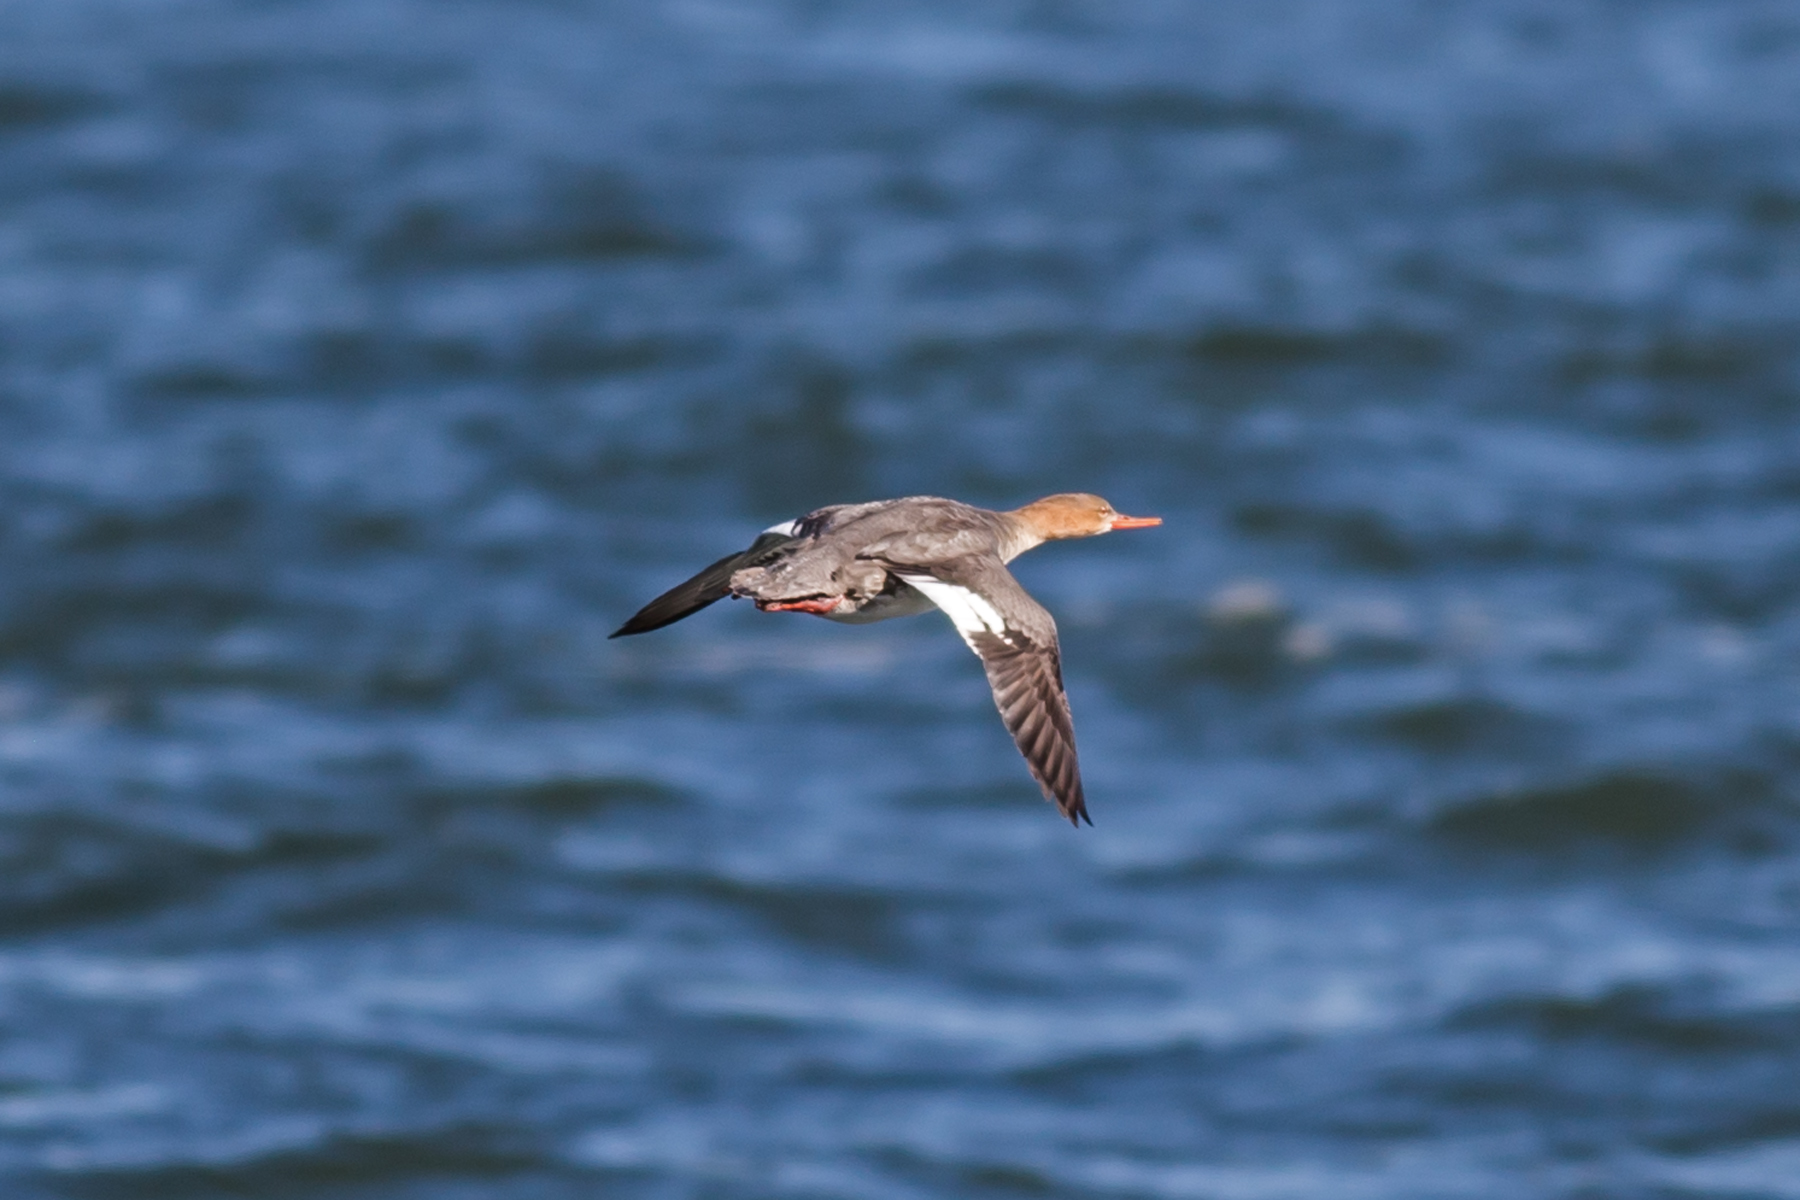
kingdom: Animalia
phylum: Chordata
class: Aves
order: Anseriformes
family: Anatidae
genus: Mergus
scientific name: Mergus serrator
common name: Red-breasted merganser
